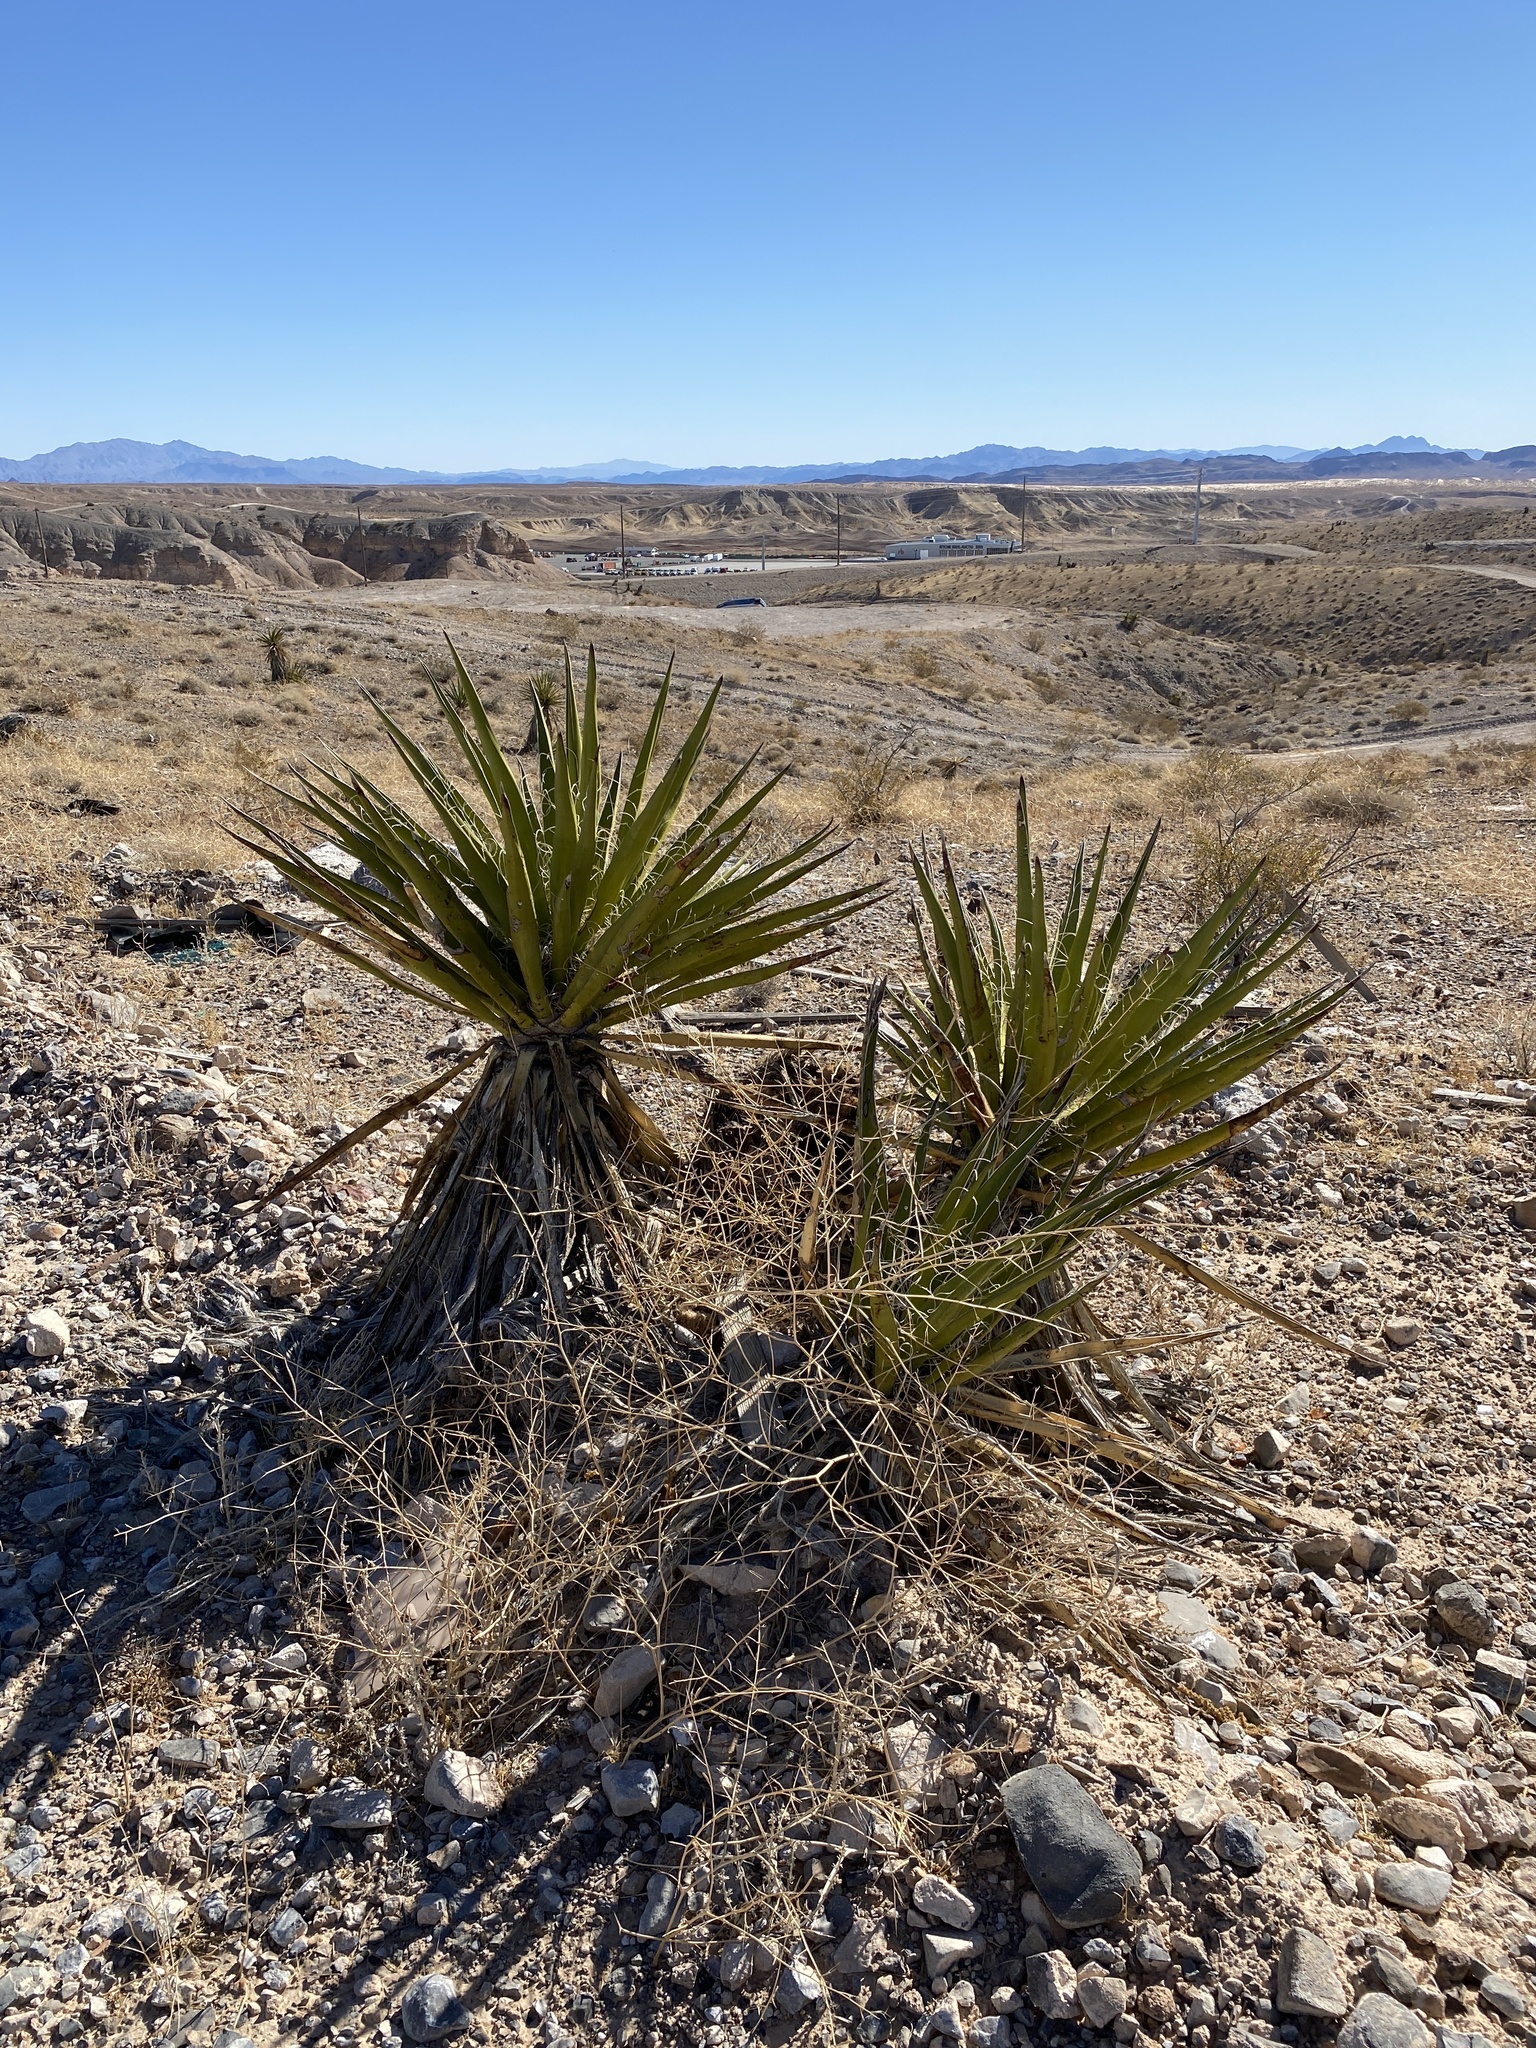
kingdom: Plantae
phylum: Tracheophyta
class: Liliopsida
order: Asparagales
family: Asparagaceae
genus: Yucca
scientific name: Yucca schidigera
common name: Mojave yucca
